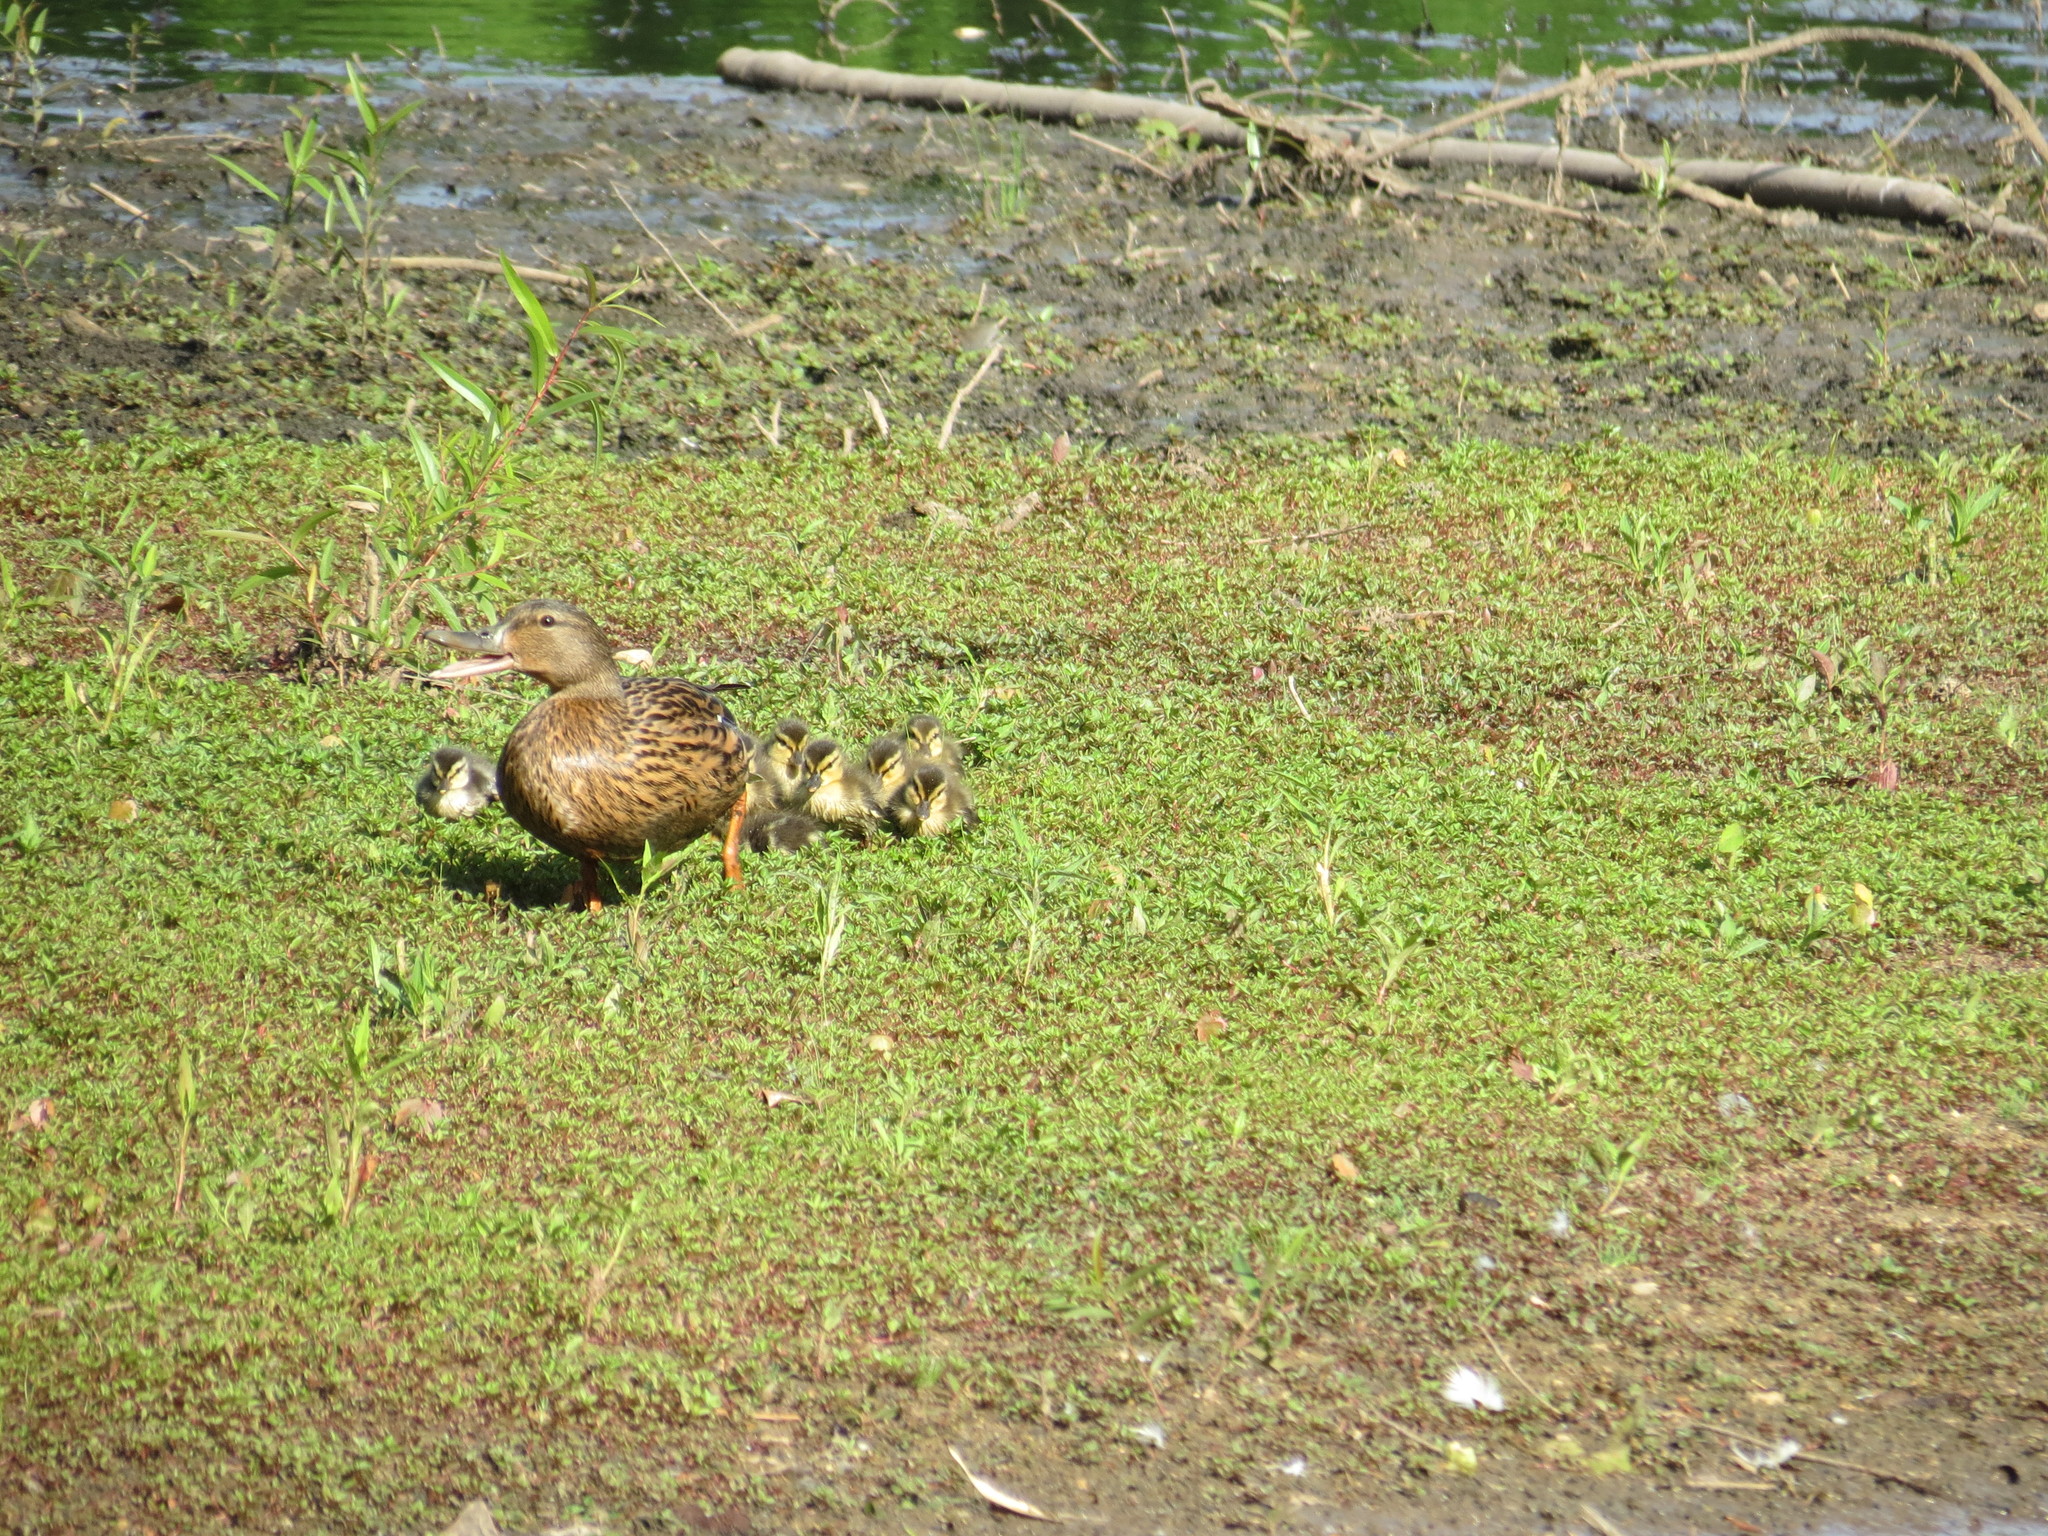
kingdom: Animalia
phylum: Chordata
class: Aves
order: Anseriformes
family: Anatidae
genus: Anas
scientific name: Anas platyrhynchos
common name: Mallard
